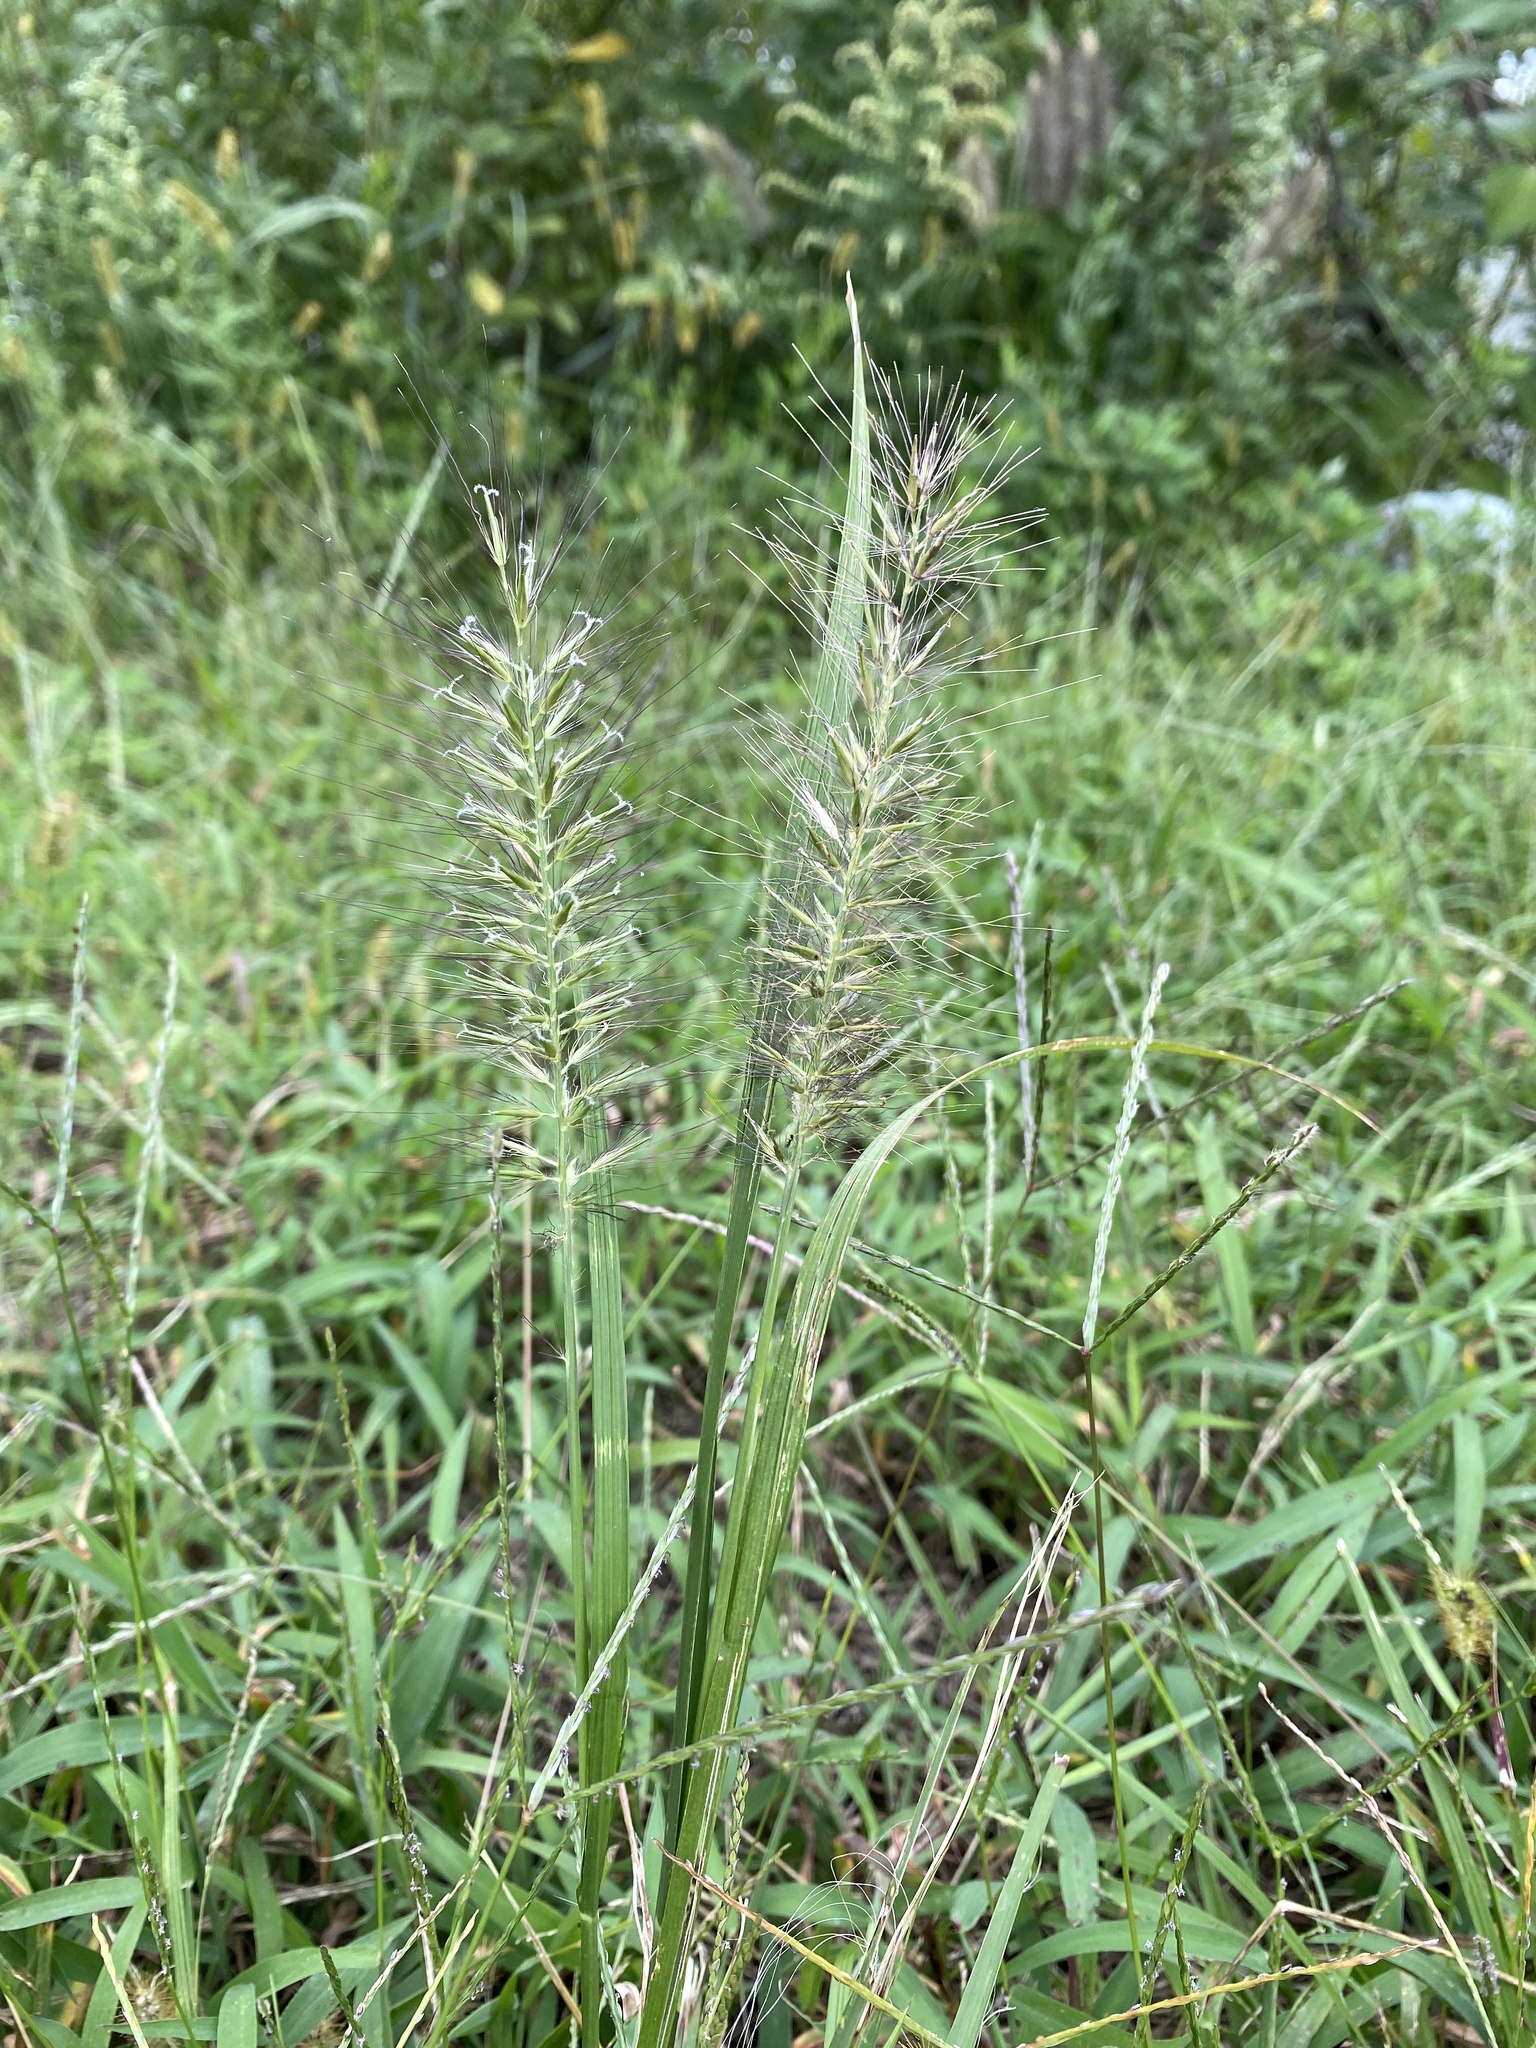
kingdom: Plantae
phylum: Tracheophyta
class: Liliopsida
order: Poales
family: Poaceae
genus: Cenchrus
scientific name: Cenchrus alopecuroides
